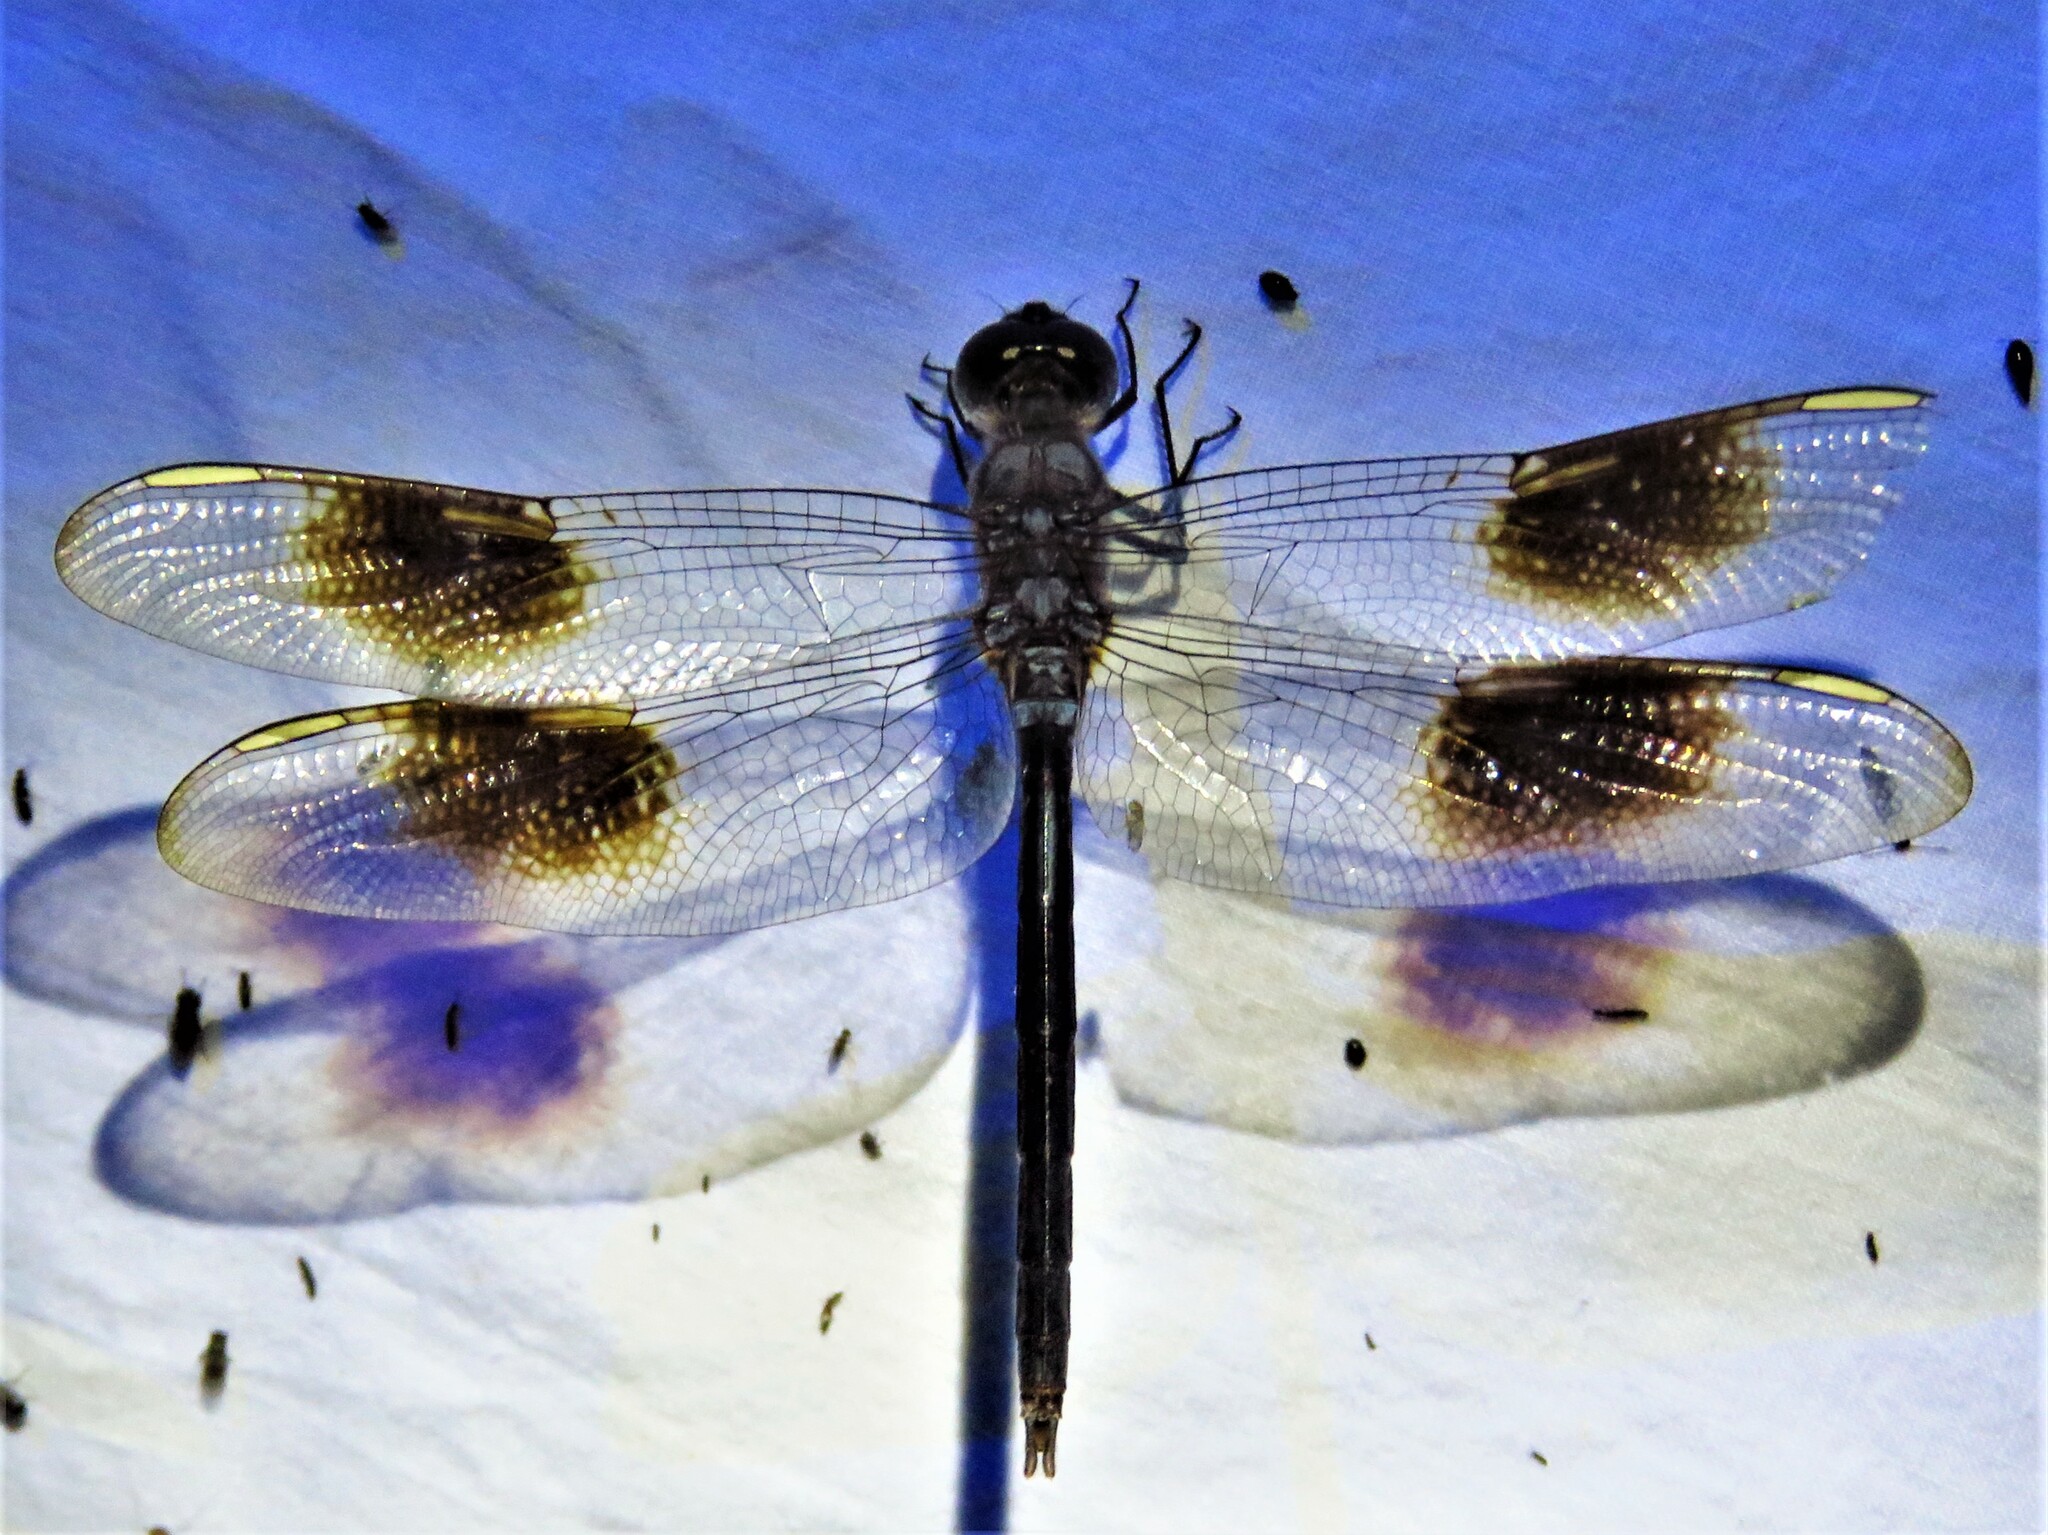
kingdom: Animalia
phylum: Arthropoda
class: Insecta
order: Odonata
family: Libellulidae
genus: Brachymesia
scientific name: Brachymesia gravida
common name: Four-spotted pennant
